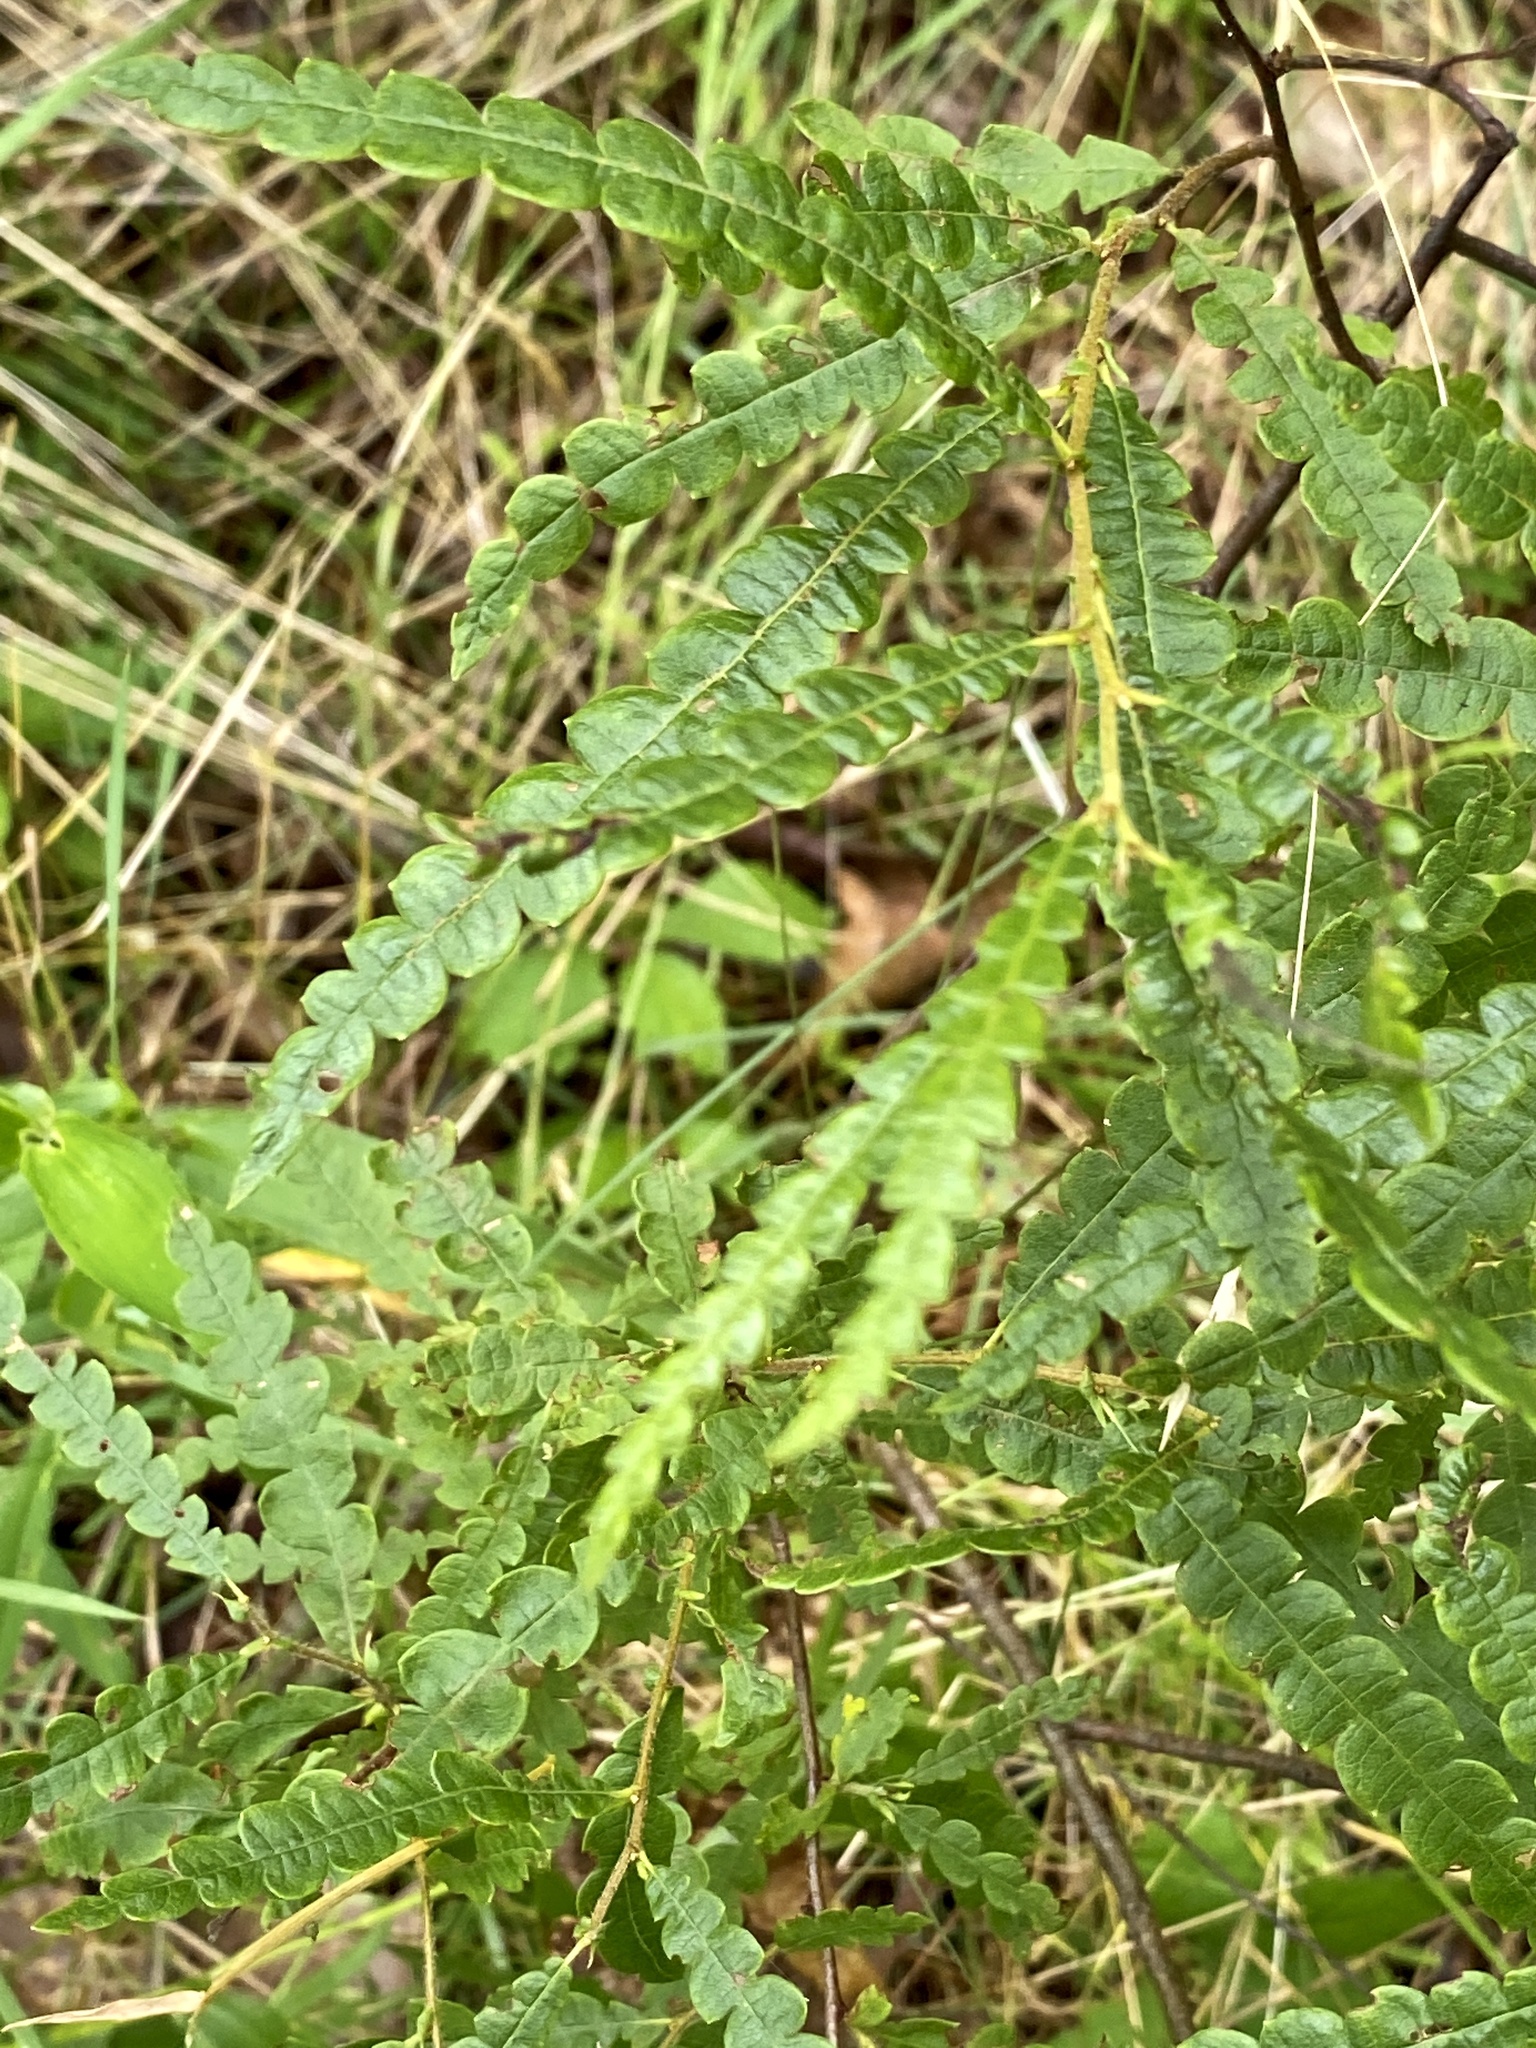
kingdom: Plantae
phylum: Tracheophyta
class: Magnoliopsida
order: Fagales
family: Myricaceae
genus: Comptonia
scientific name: Comptonia peregrina
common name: Sweet-fern
